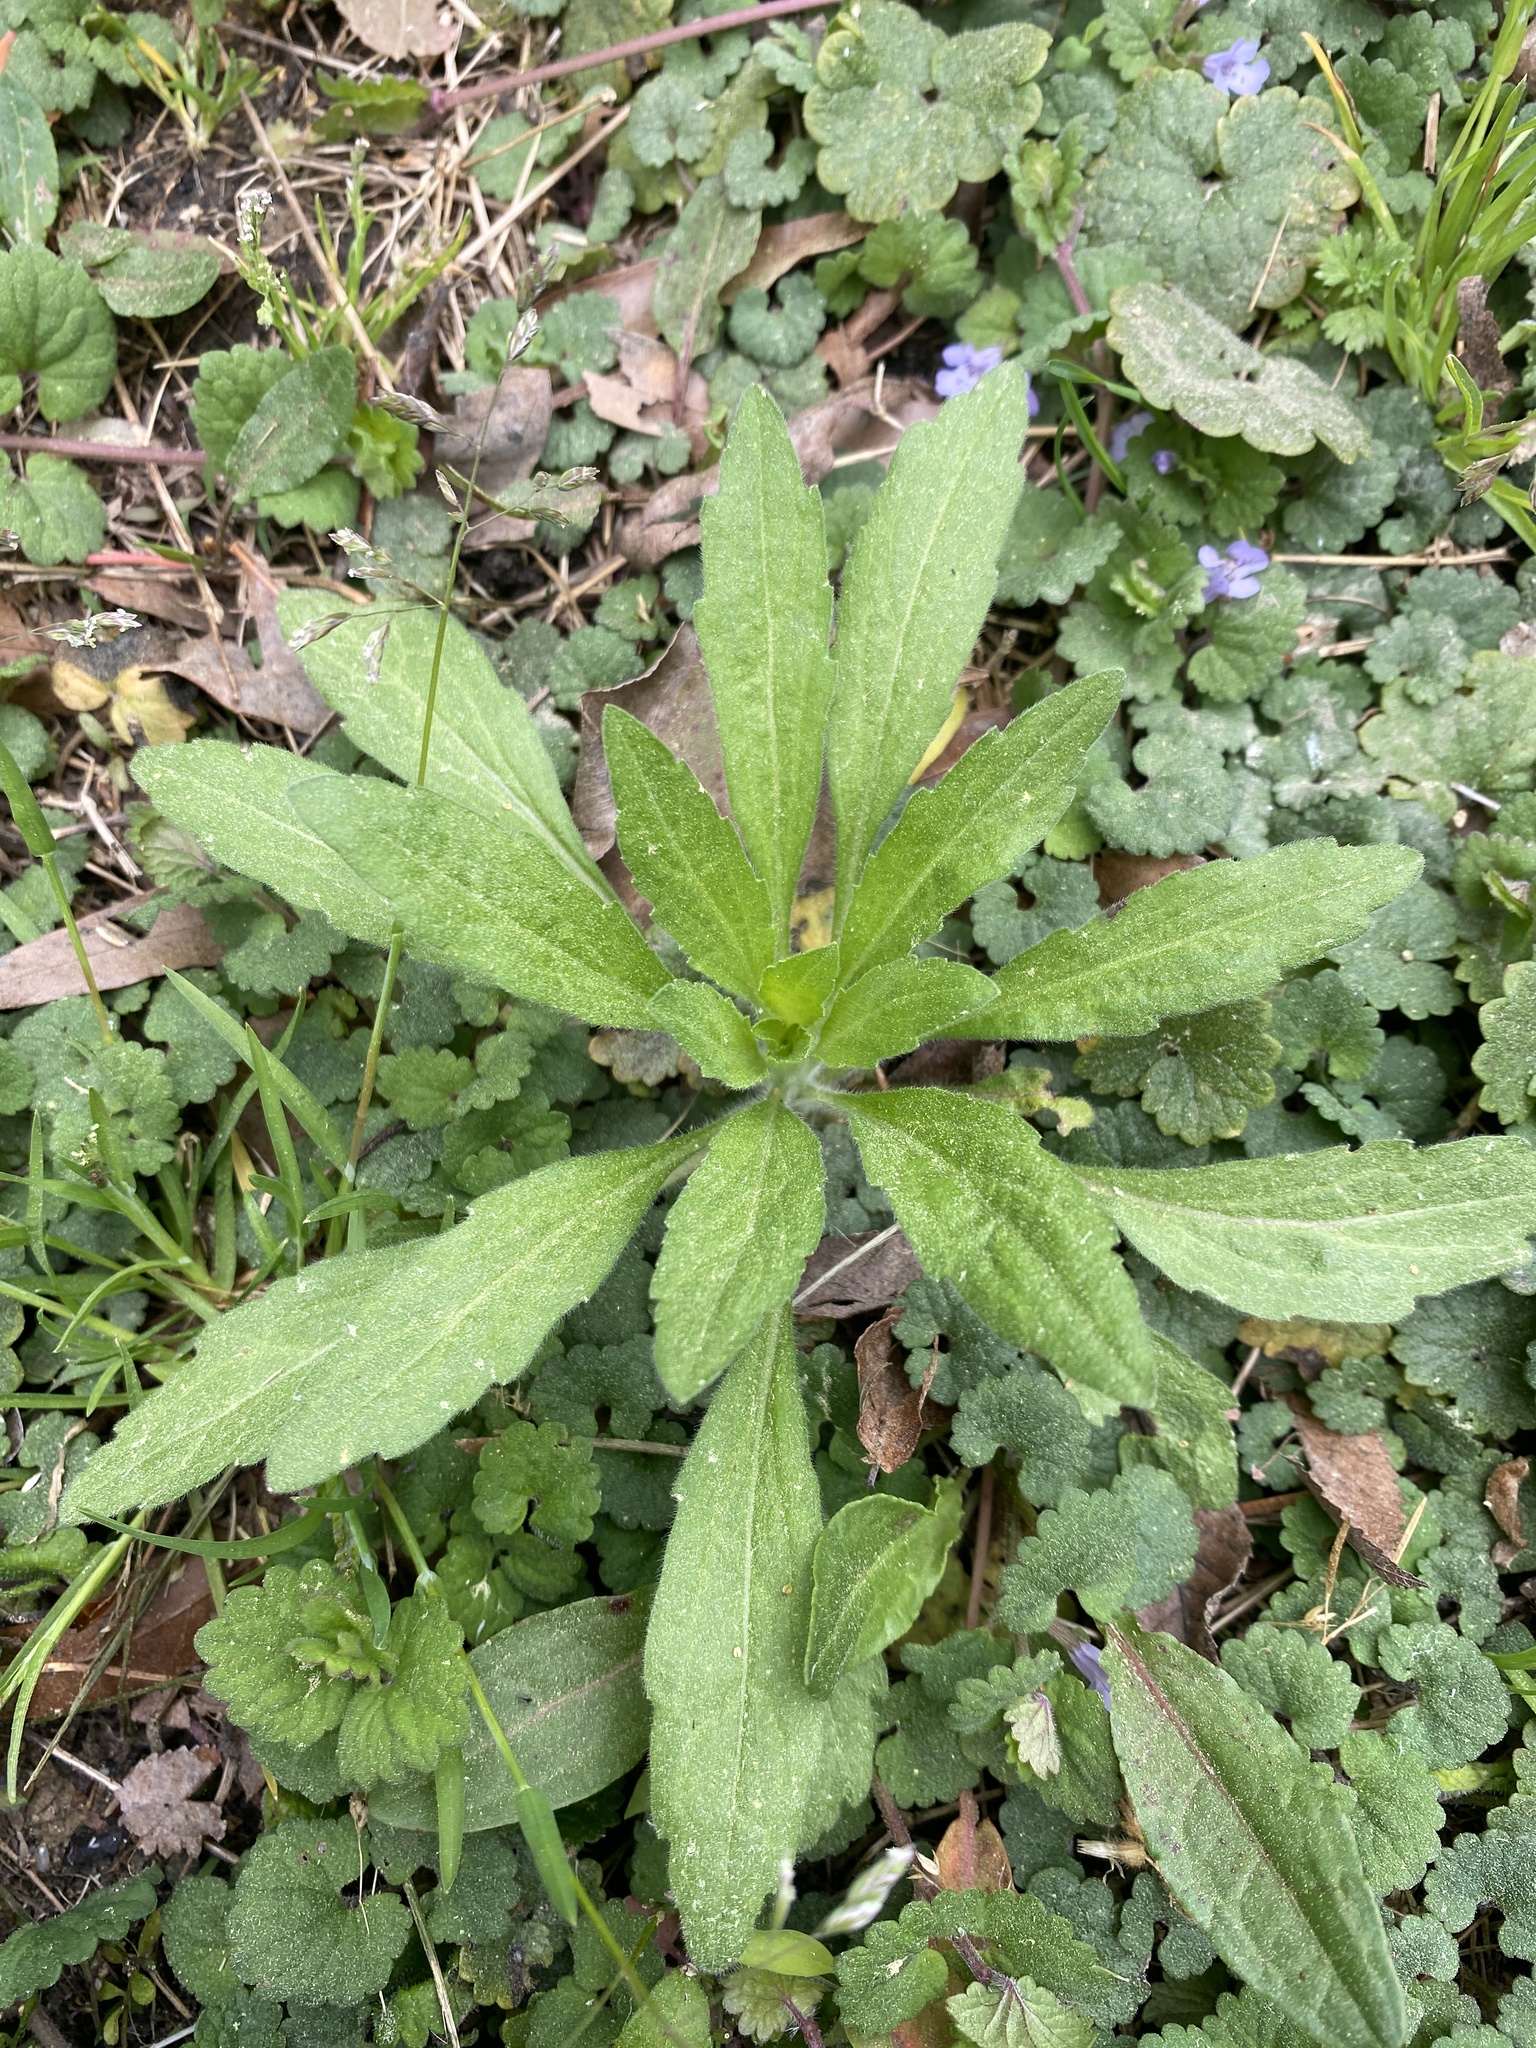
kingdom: Plantae
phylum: Tracheophyta
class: Magnoliopsida
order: Asterales
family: Asteraceae
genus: Erigeron
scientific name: Erigeron canadensis
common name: Canadian fleabane
